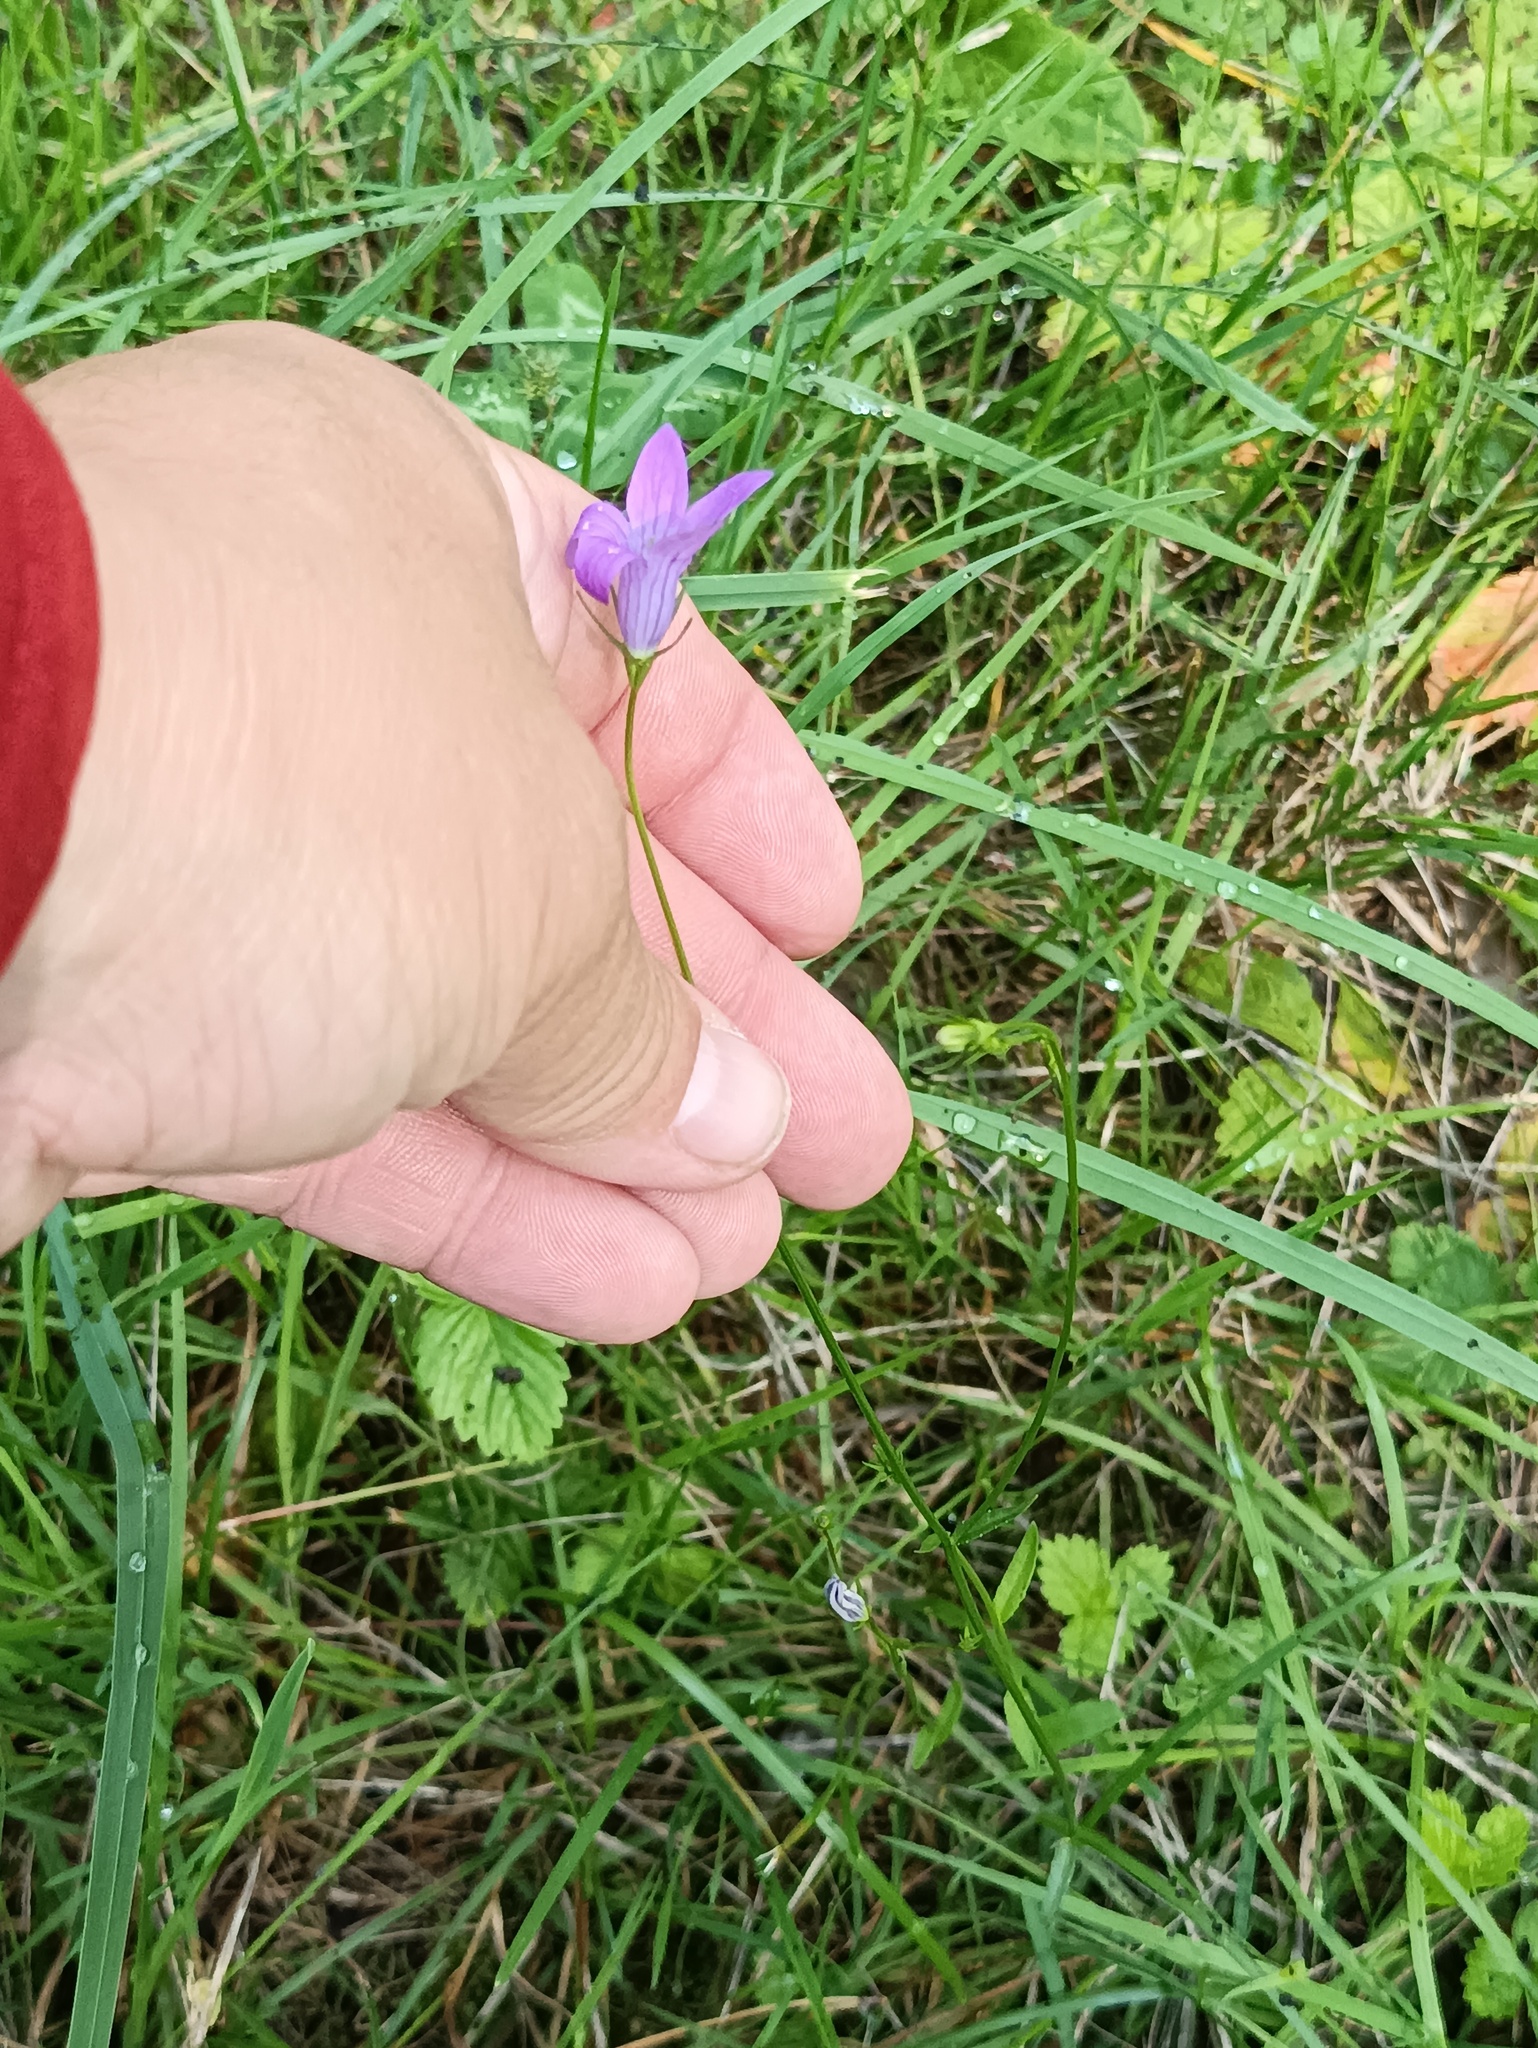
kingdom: Plantae
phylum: Tracheophyta
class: Magnoliopsida
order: Asterales
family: Campanulaceae
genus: Campanula
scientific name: Campanula patula
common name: Spreading bellflower
